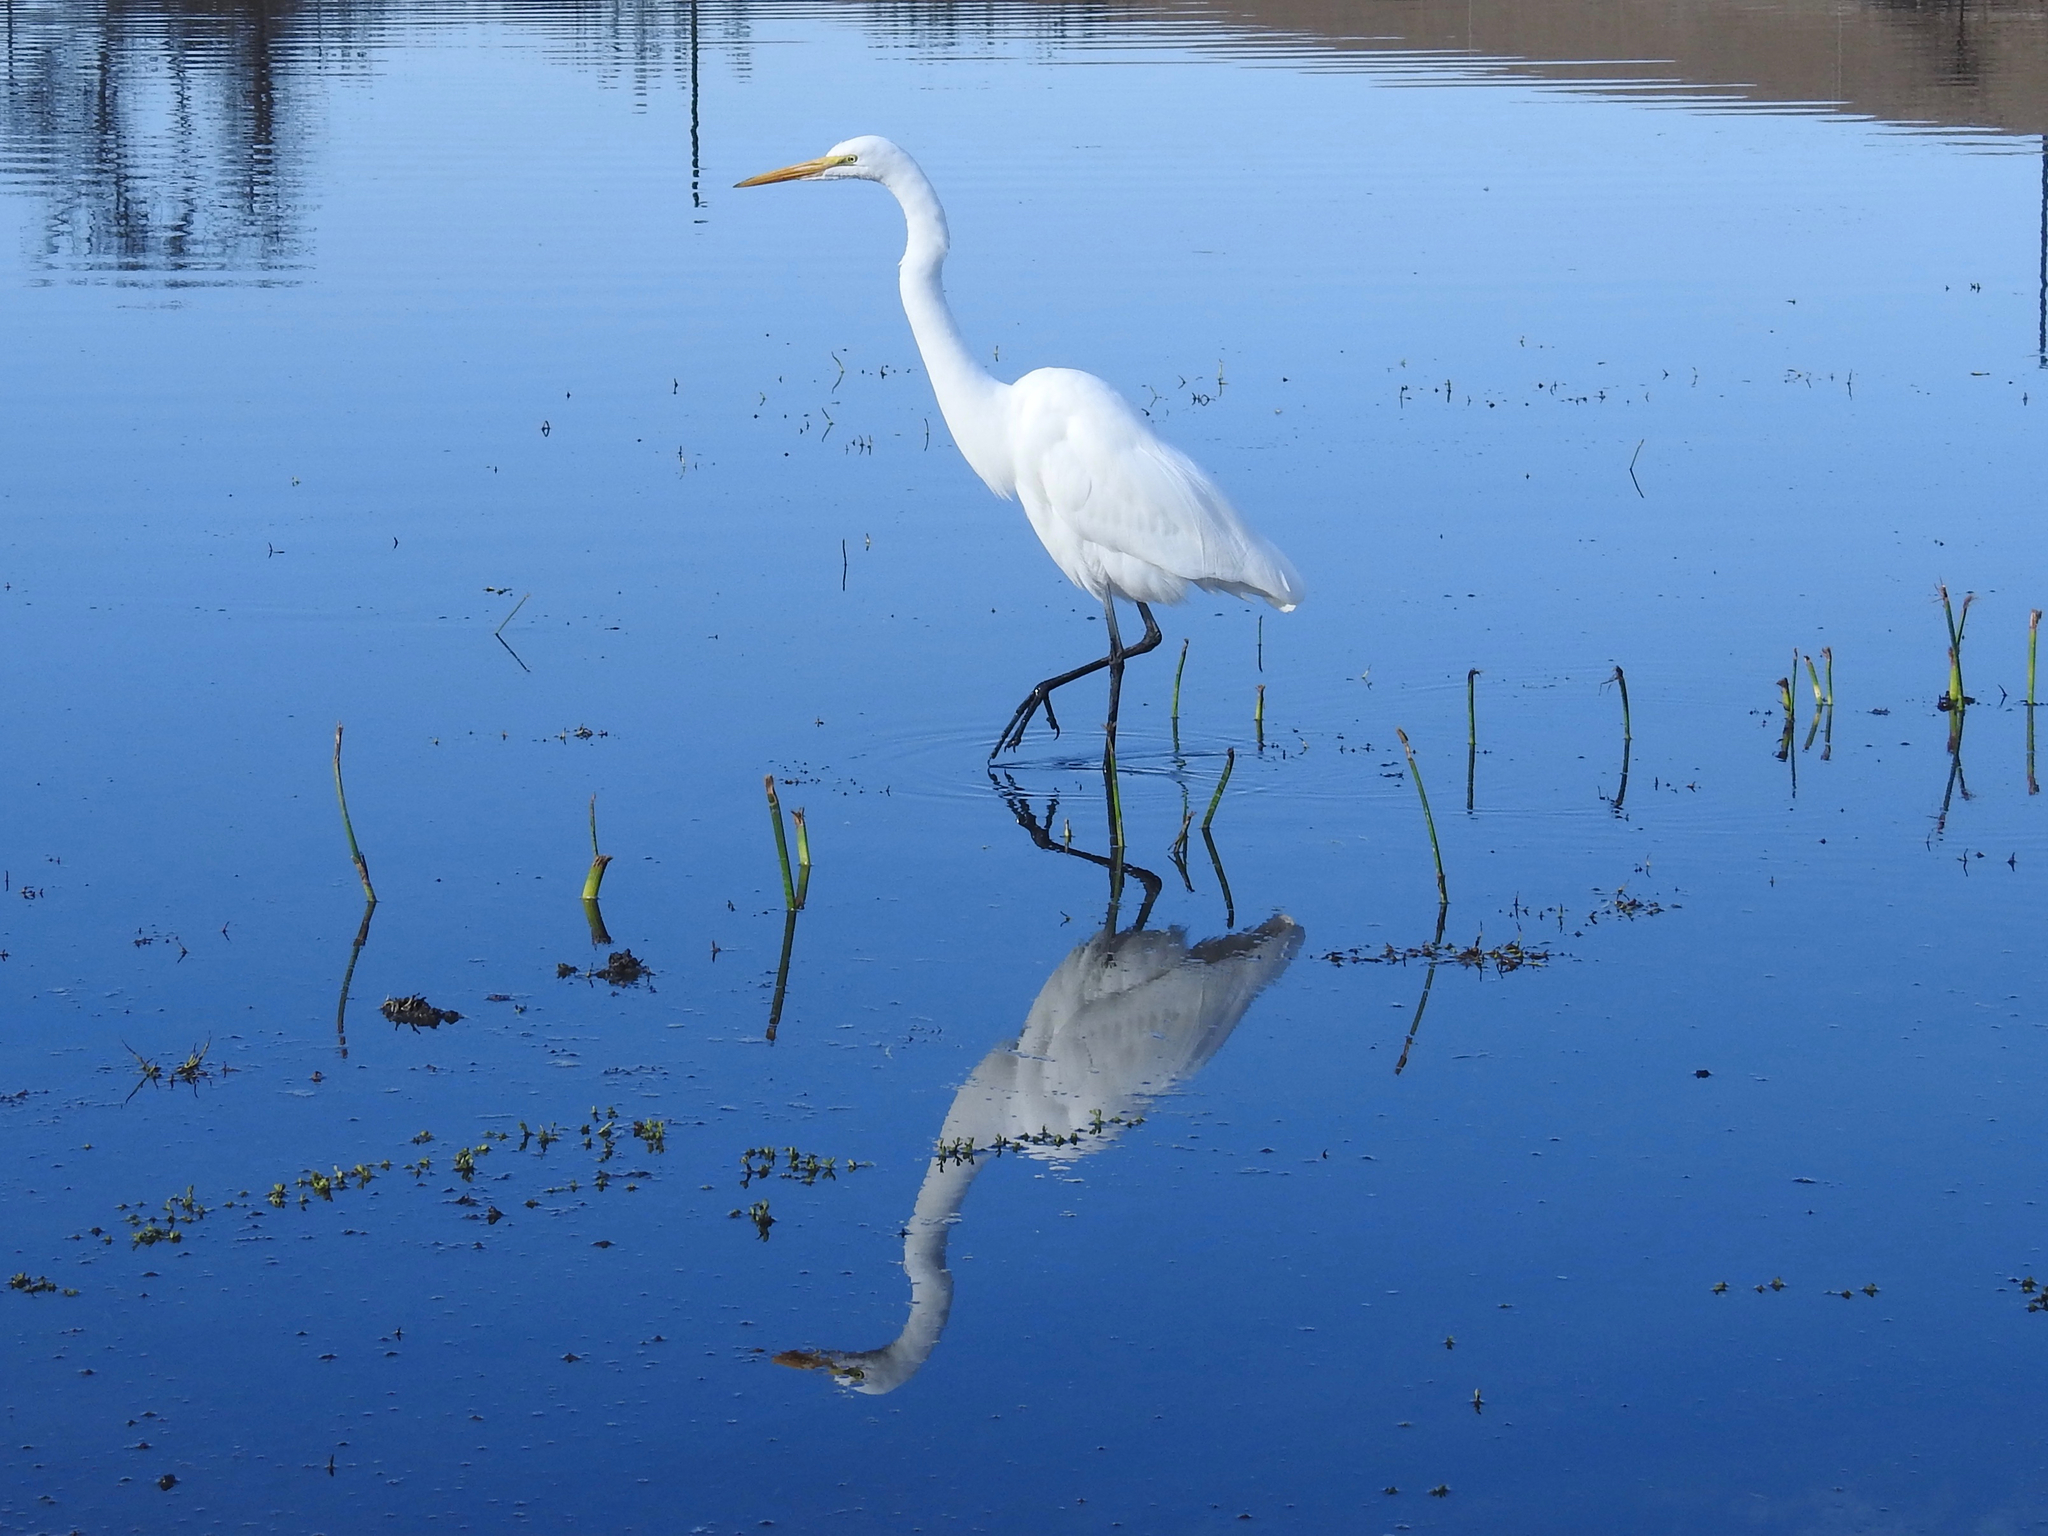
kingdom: Animalia
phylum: Chordata
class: Aves
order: Pelecaniformes
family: Ardeidae
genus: Ardea
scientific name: Ardea alba
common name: Great egret
